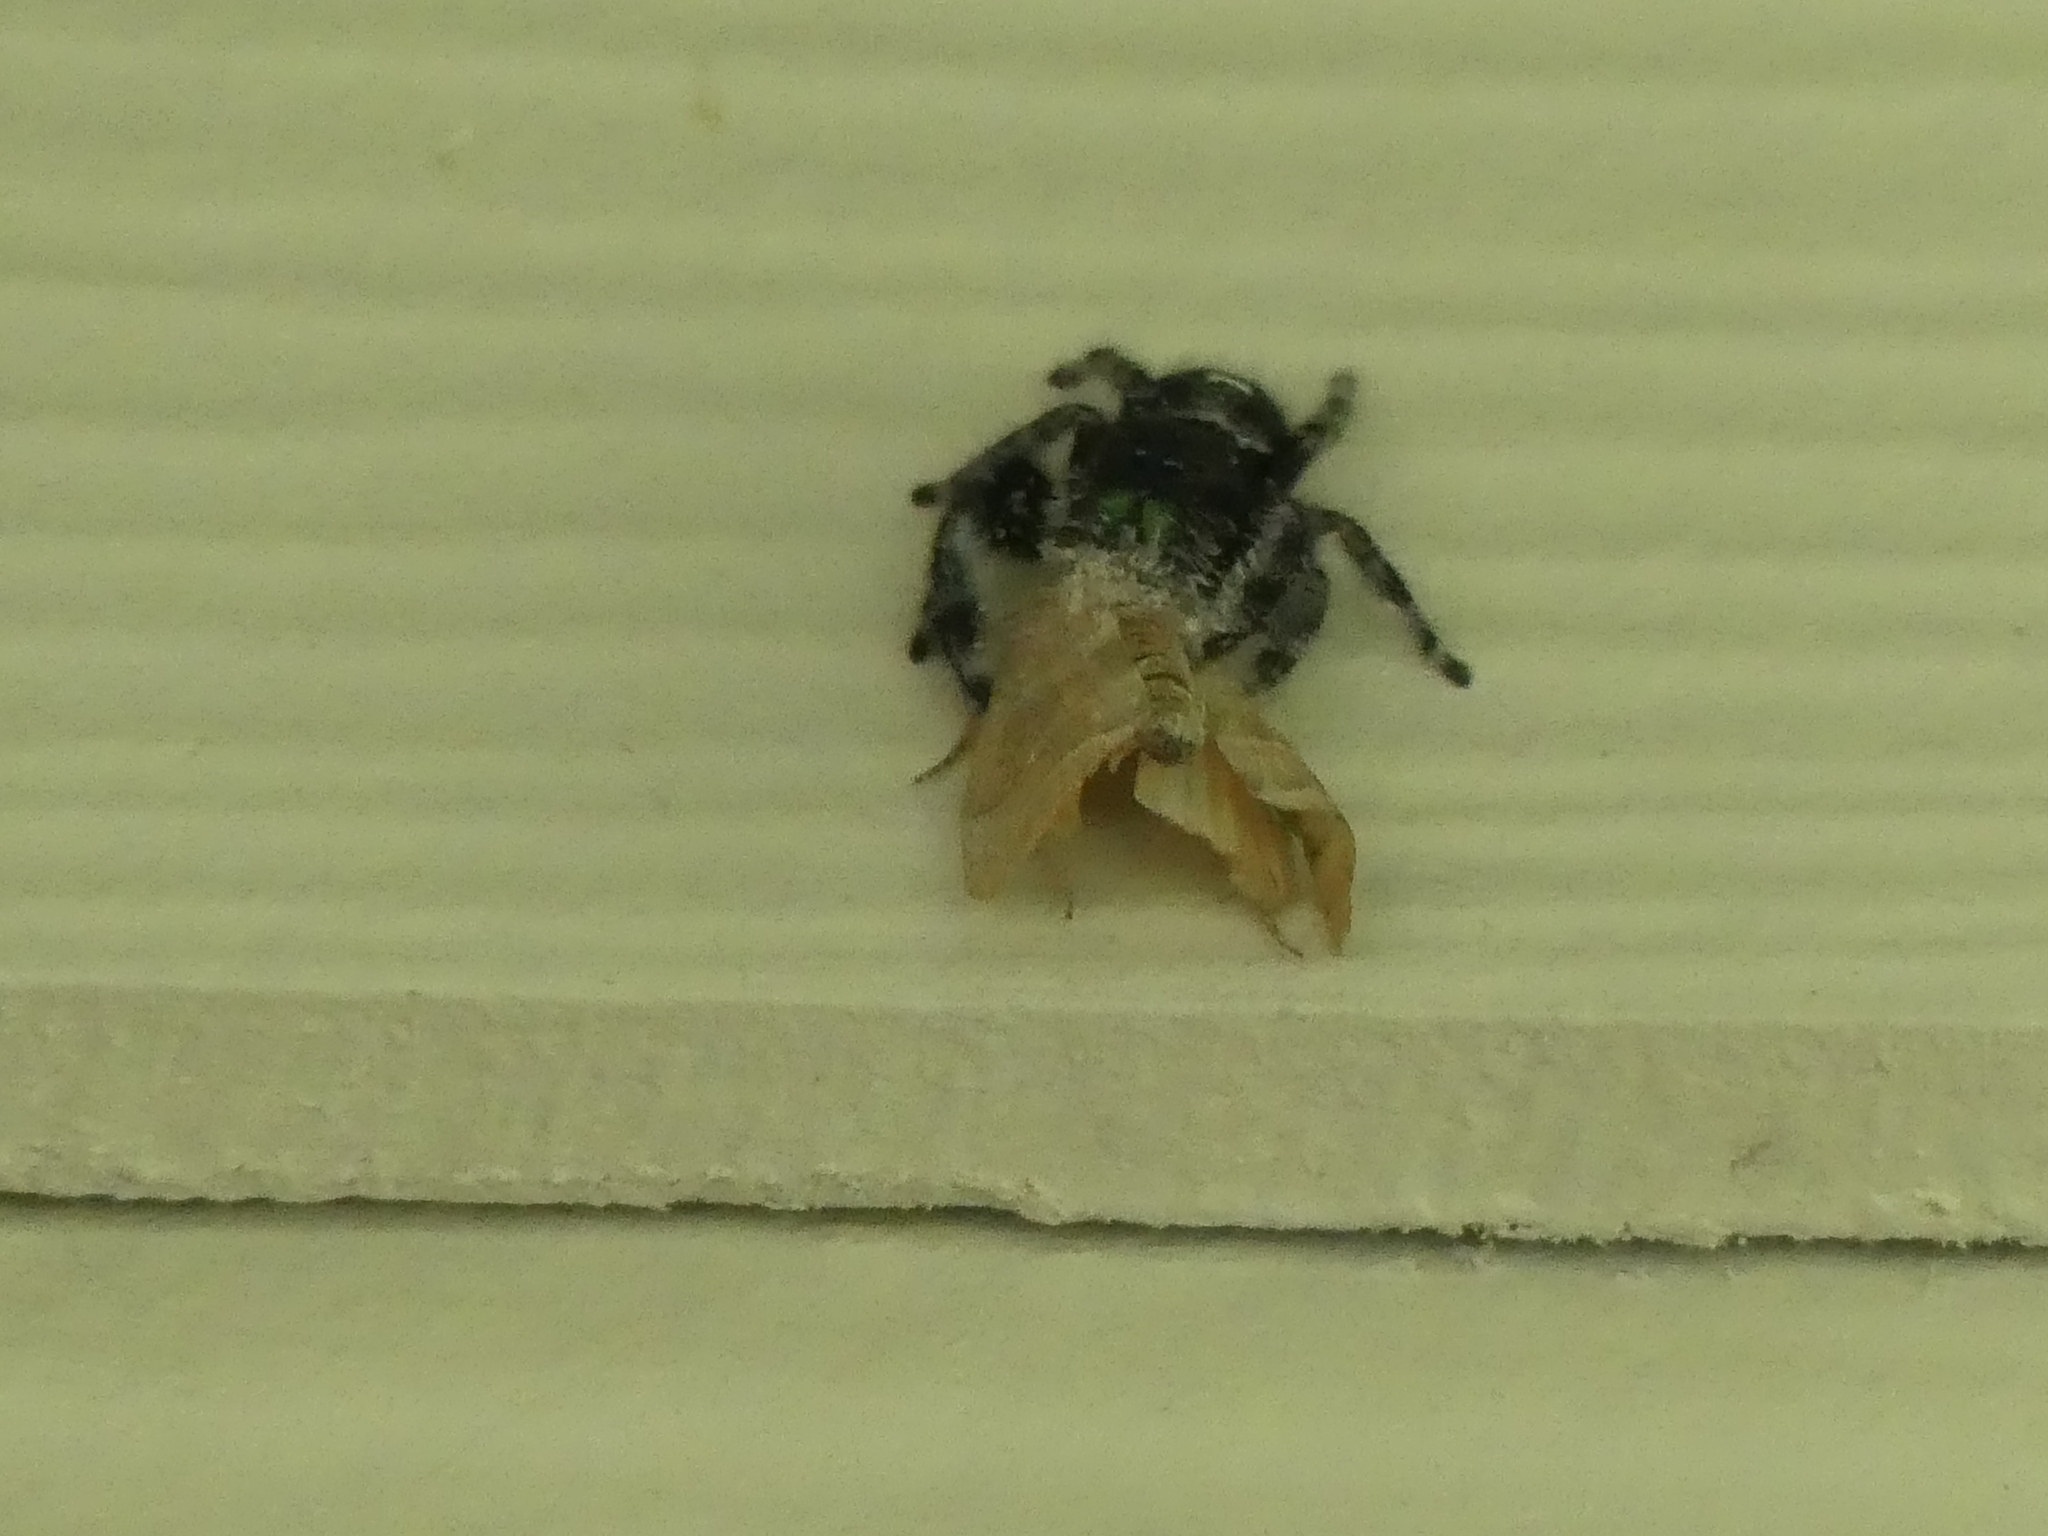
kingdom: Animalia
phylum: Arthropoda
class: Arachnida
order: Araneae
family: Salticidae
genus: Phidippus
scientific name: Phidippus audax
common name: Bold jumper
